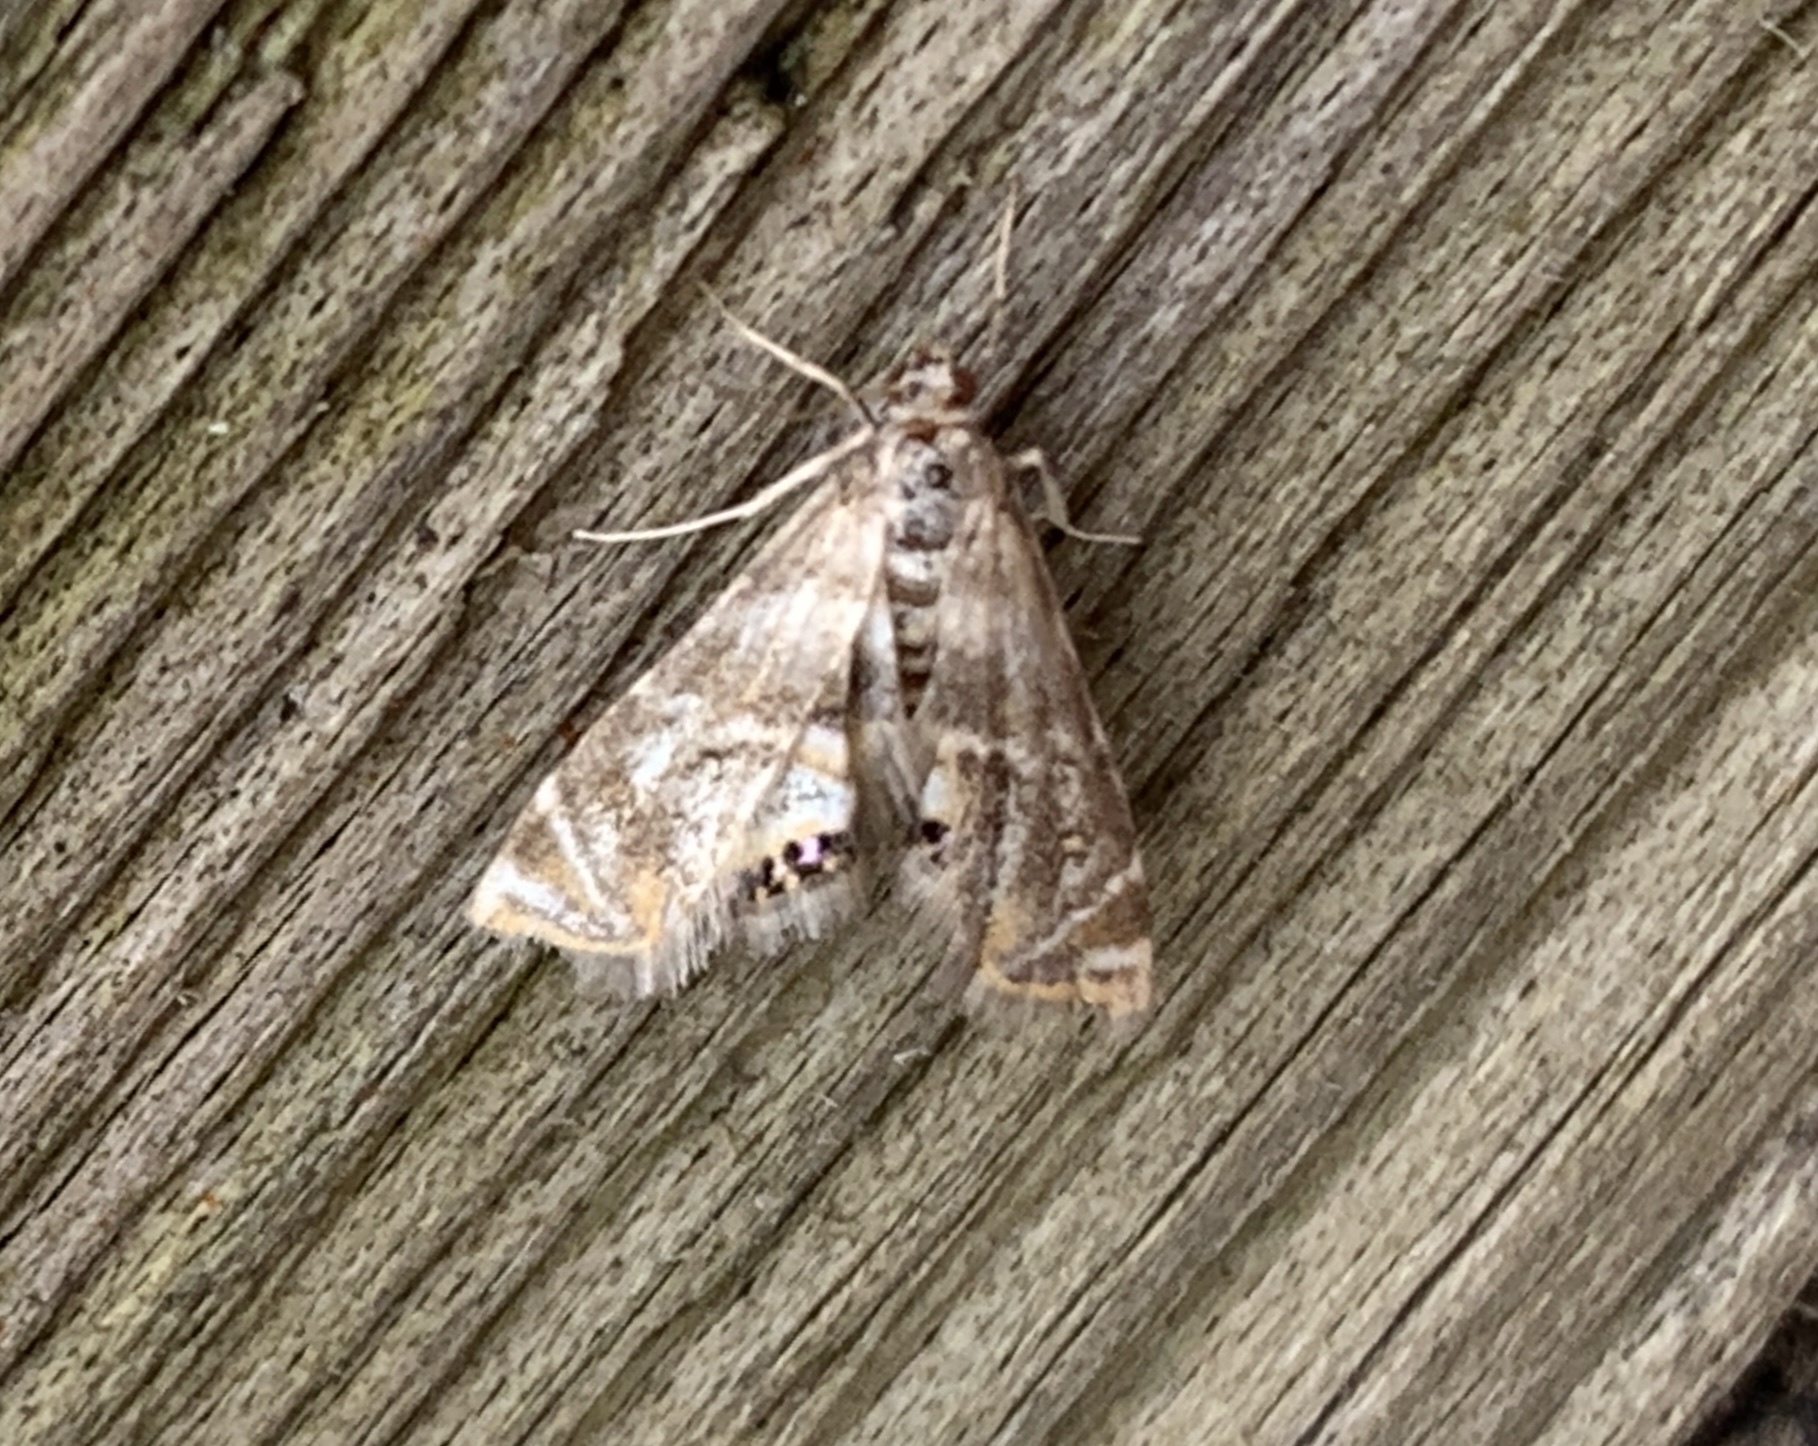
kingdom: Animalia
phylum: Arthropoda
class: Insecta
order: Lepidoptera
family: Crambidae
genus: Petrophila
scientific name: Petrophila santafealis
